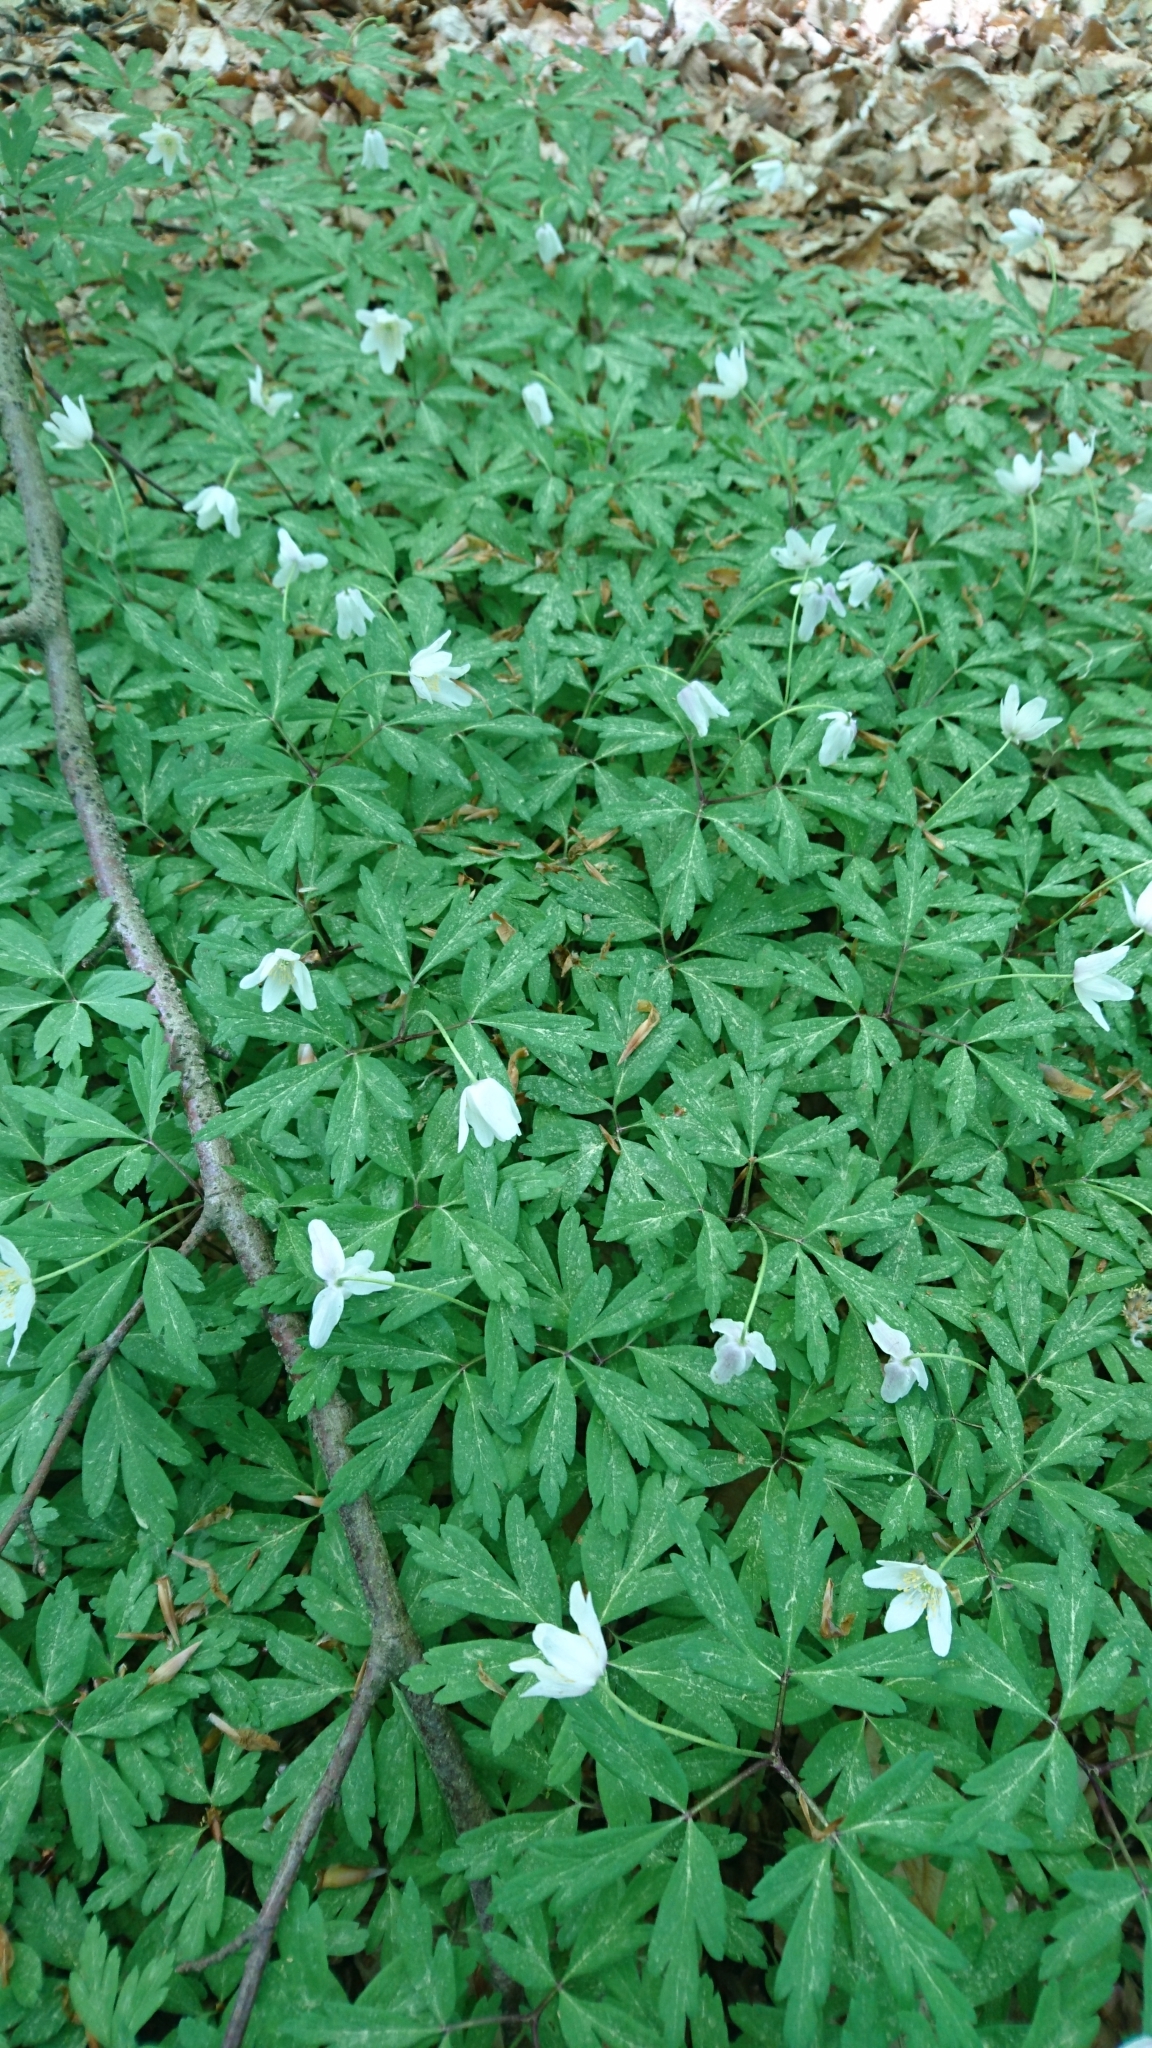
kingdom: Plantae
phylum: Tracheophyta
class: Magnoliopsida
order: Ranunculales
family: Ranunculaceae
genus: Anemone
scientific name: Anemone nemorosa
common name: Wood anemone
